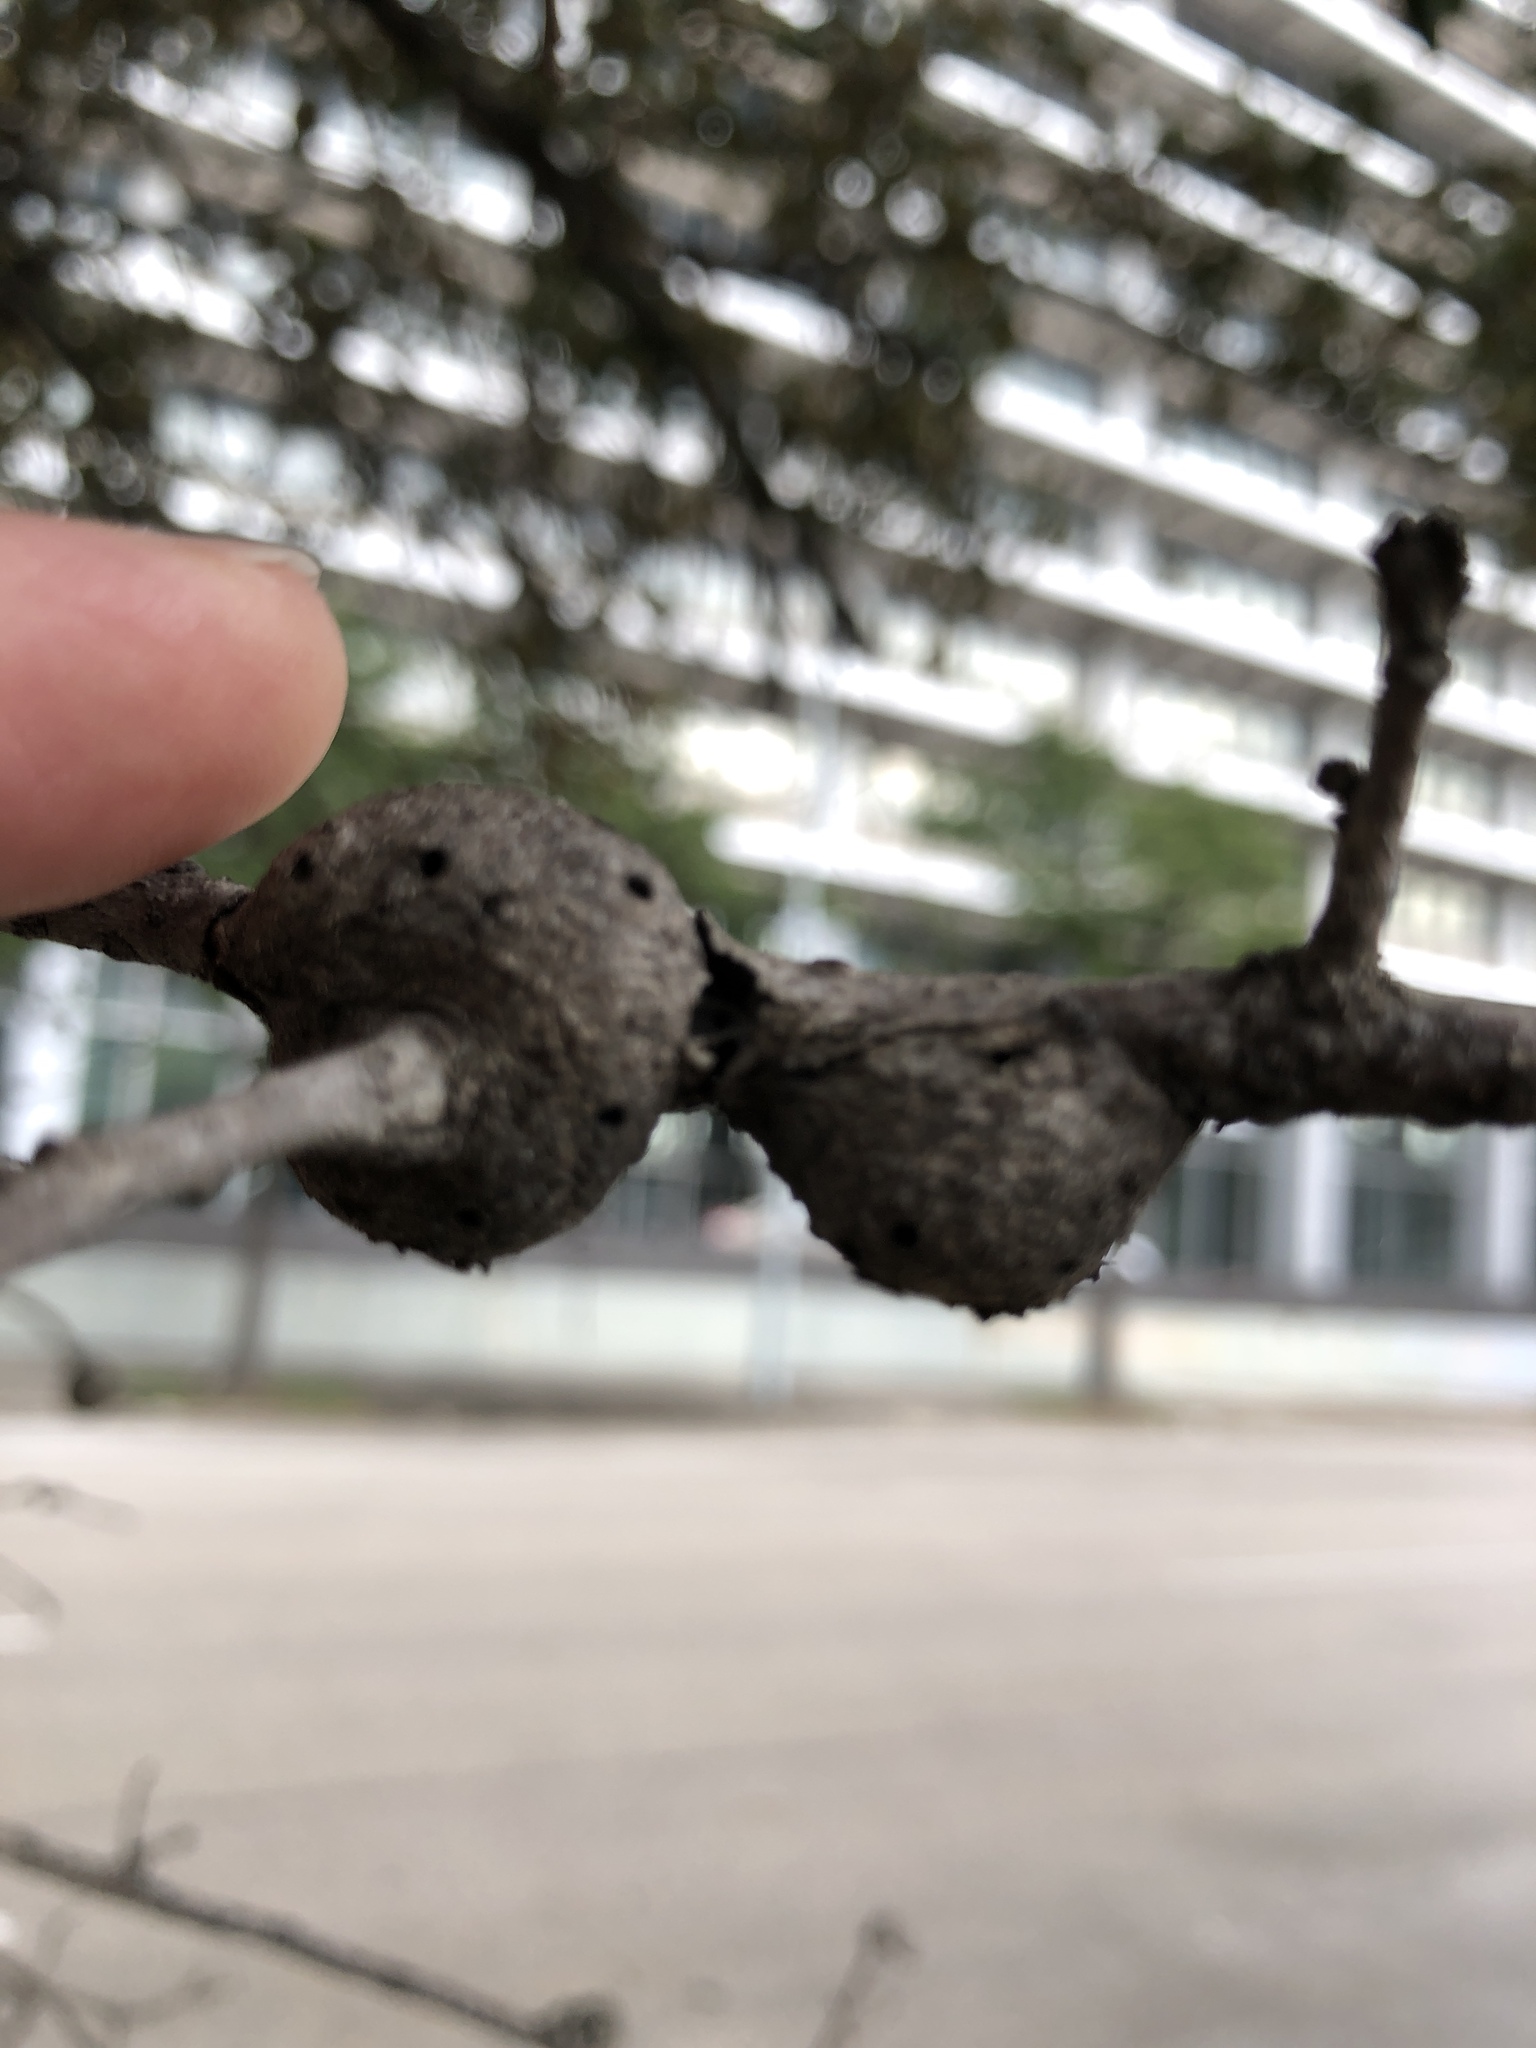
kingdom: Animalia
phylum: Arthropoda
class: Insecta
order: Hymenoptera
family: Cynipidae
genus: Callirhytis
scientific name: Callirhytis
